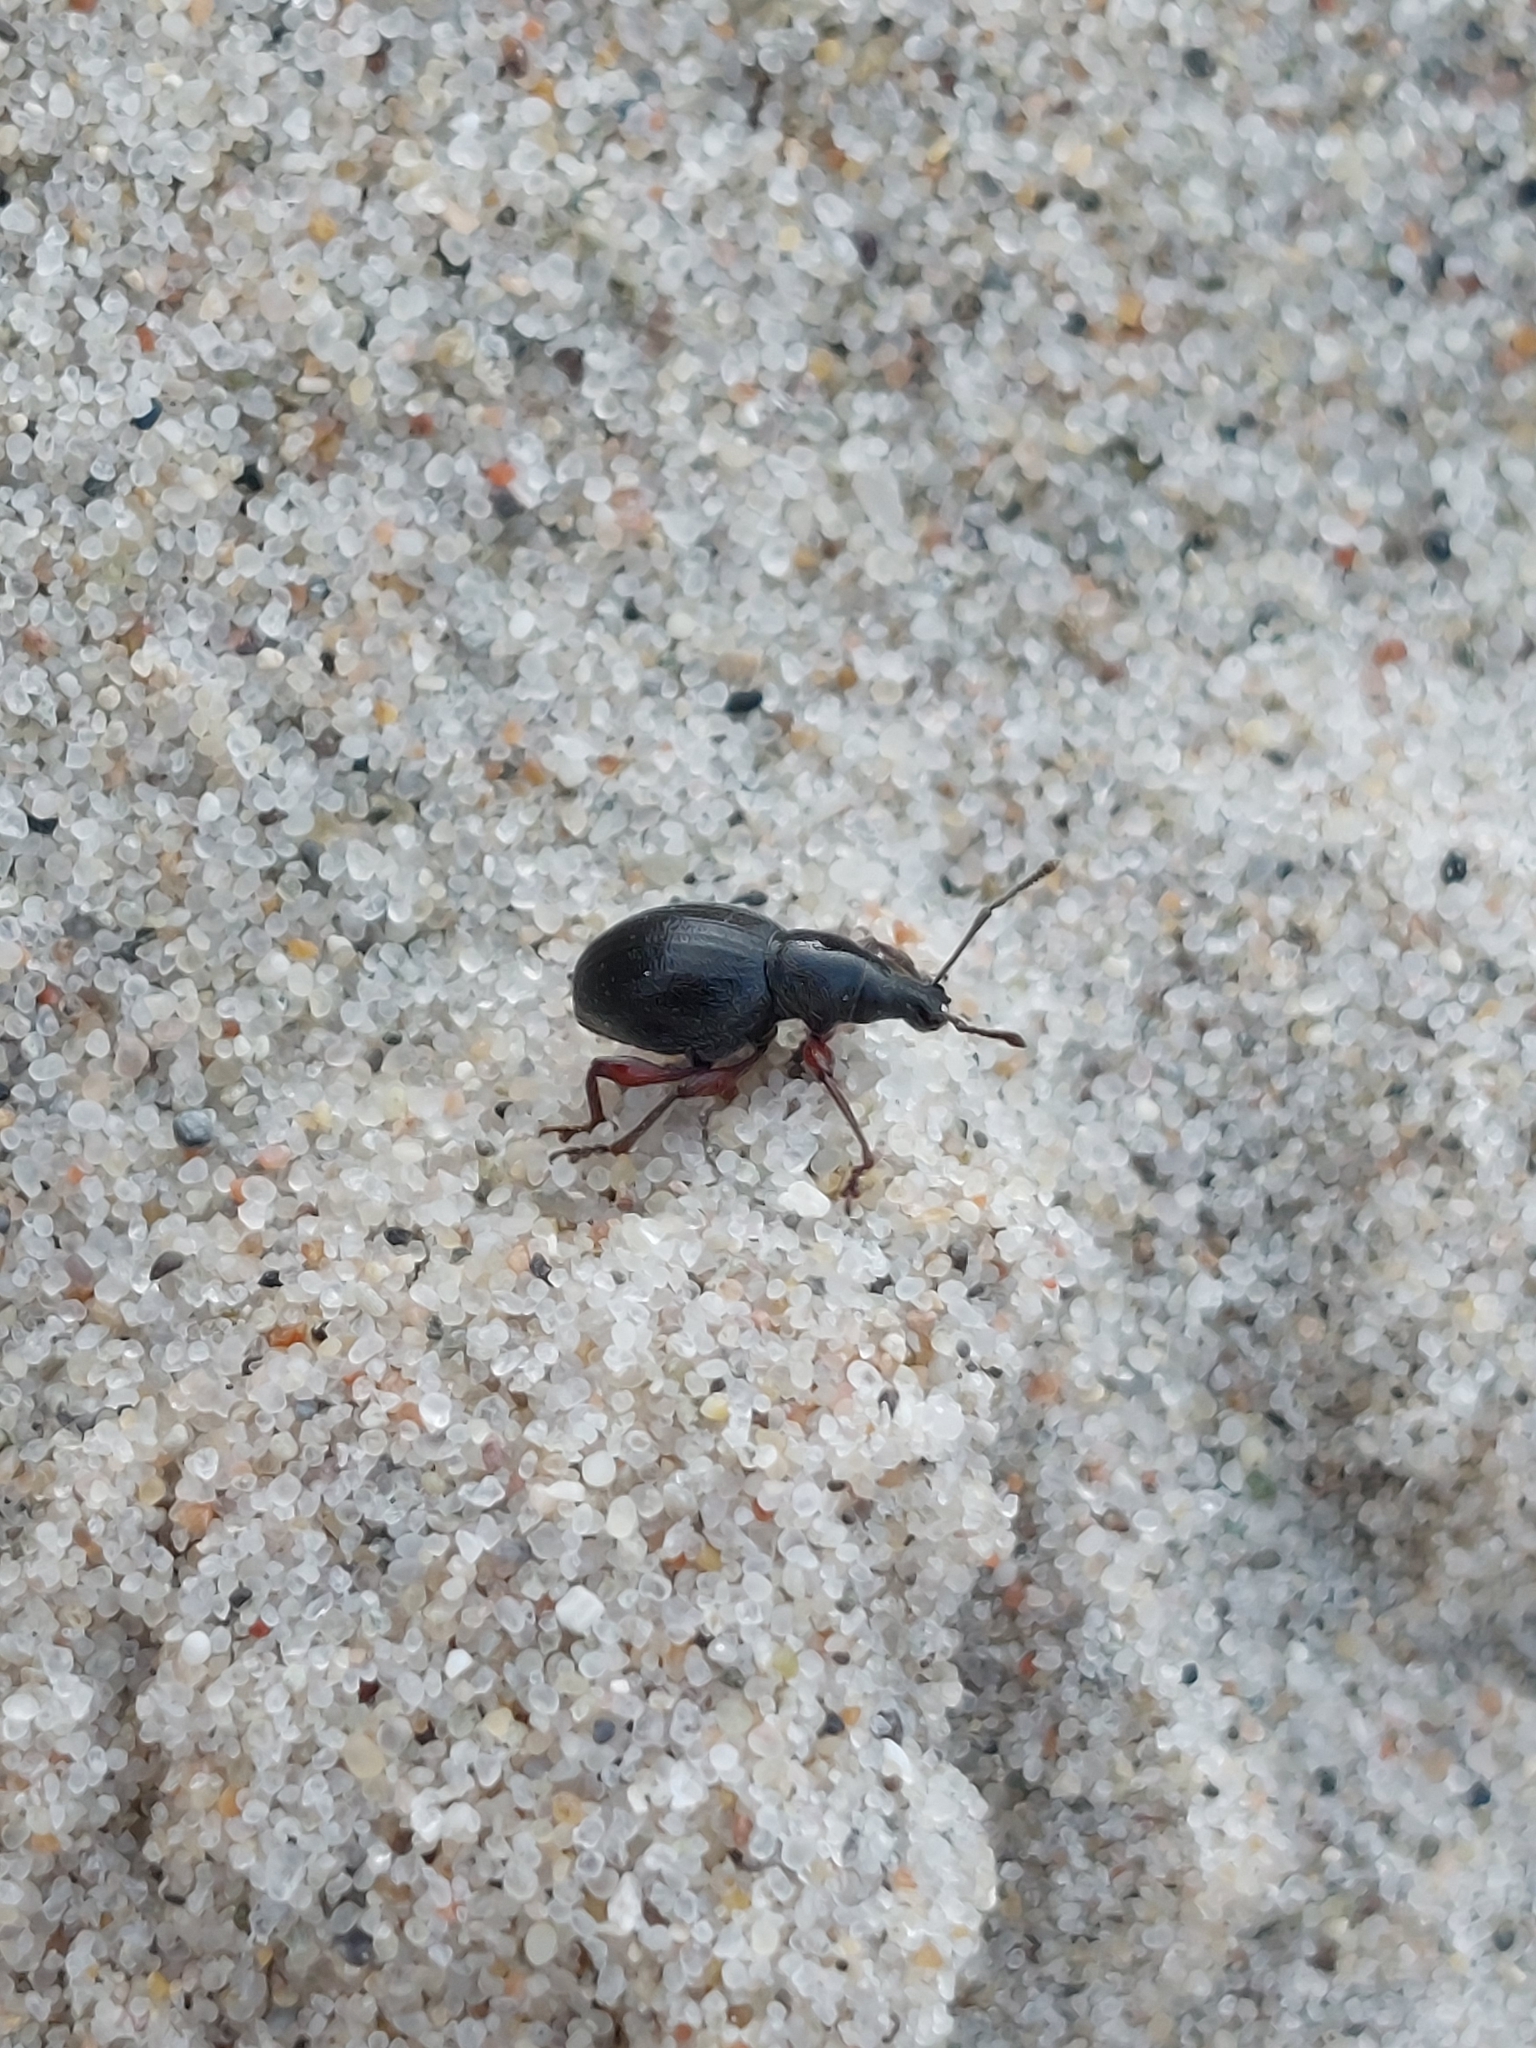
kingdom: Animalia
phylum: Arthropoda
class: Insecta
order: Coleoptera
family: Curculionidae
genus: Otiorhynchus
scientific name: Otiorhynchus atroapterus
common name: Black marram weevil
